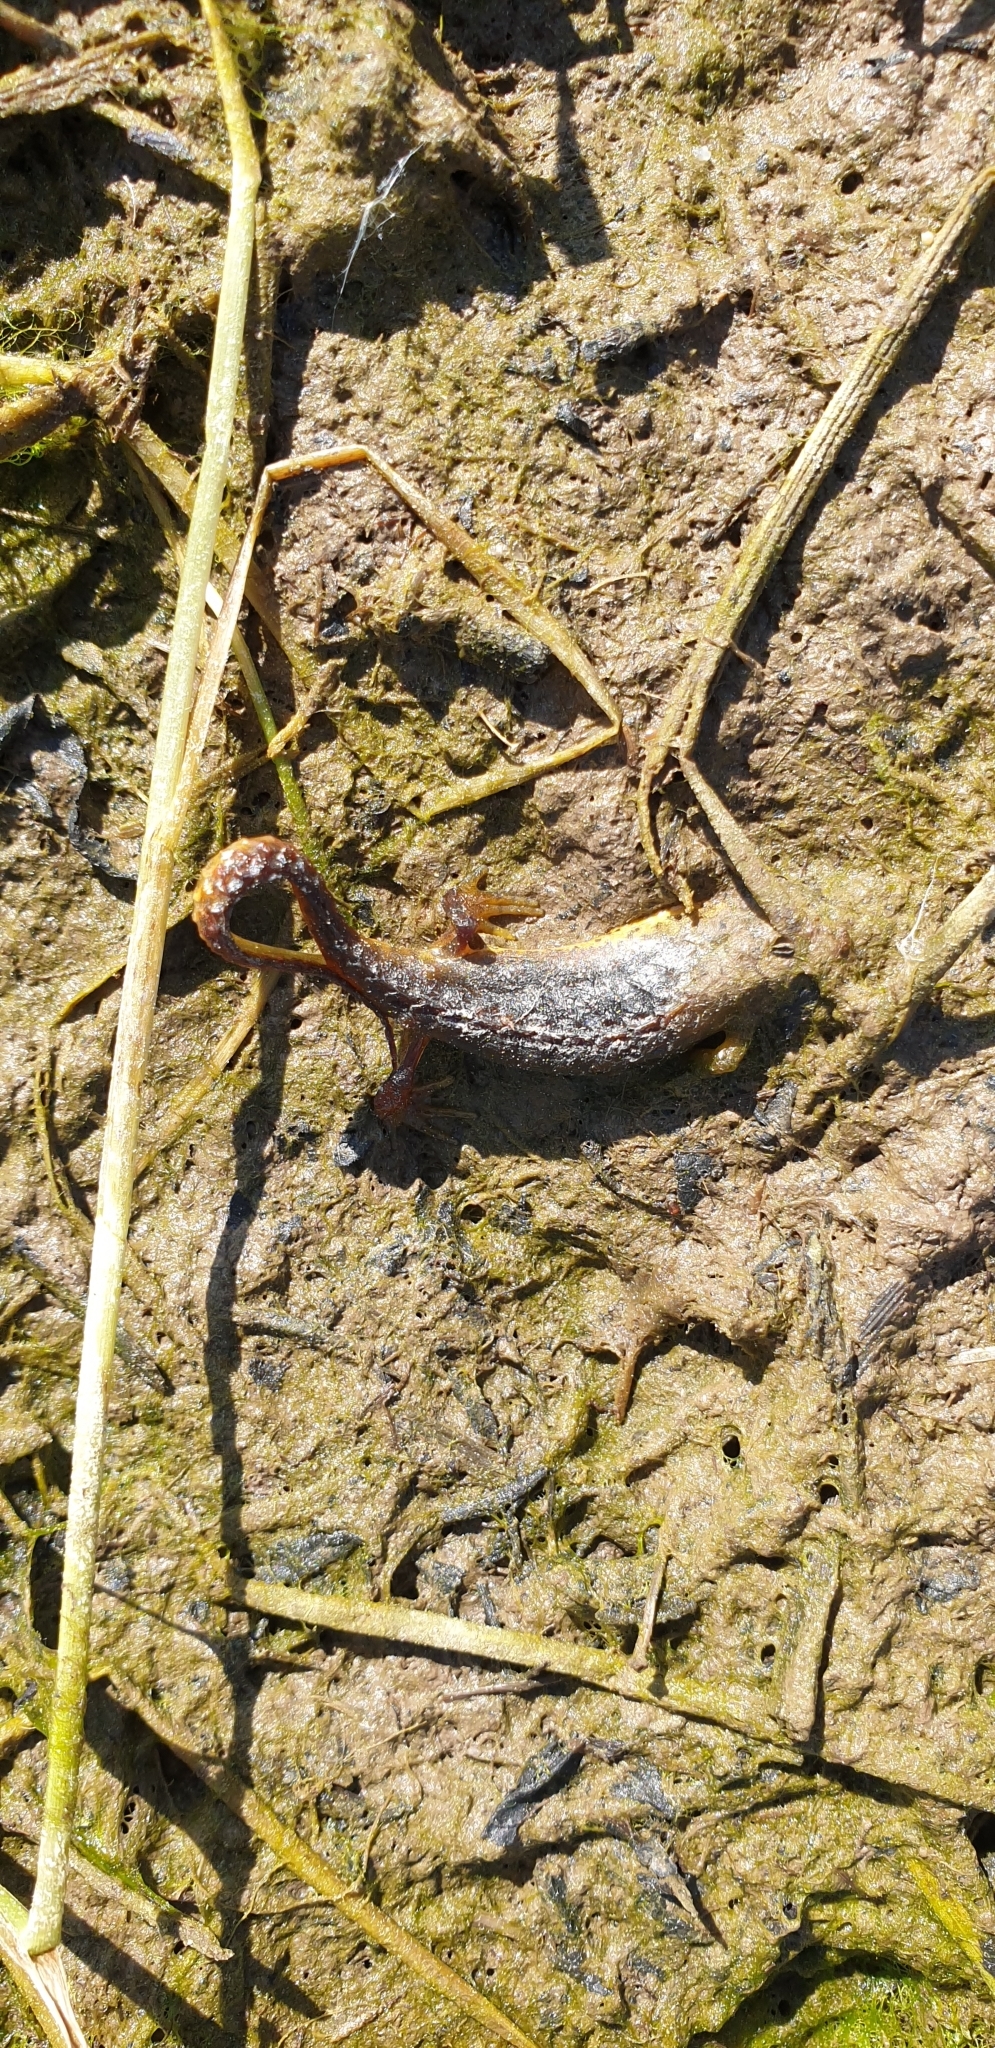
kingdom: Animalia
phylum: Chordata
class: Amphibia
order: Caudata
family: Salamandridae
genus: Lissotriton
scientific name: Lissotriton vulgaris
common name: Smooth newt
